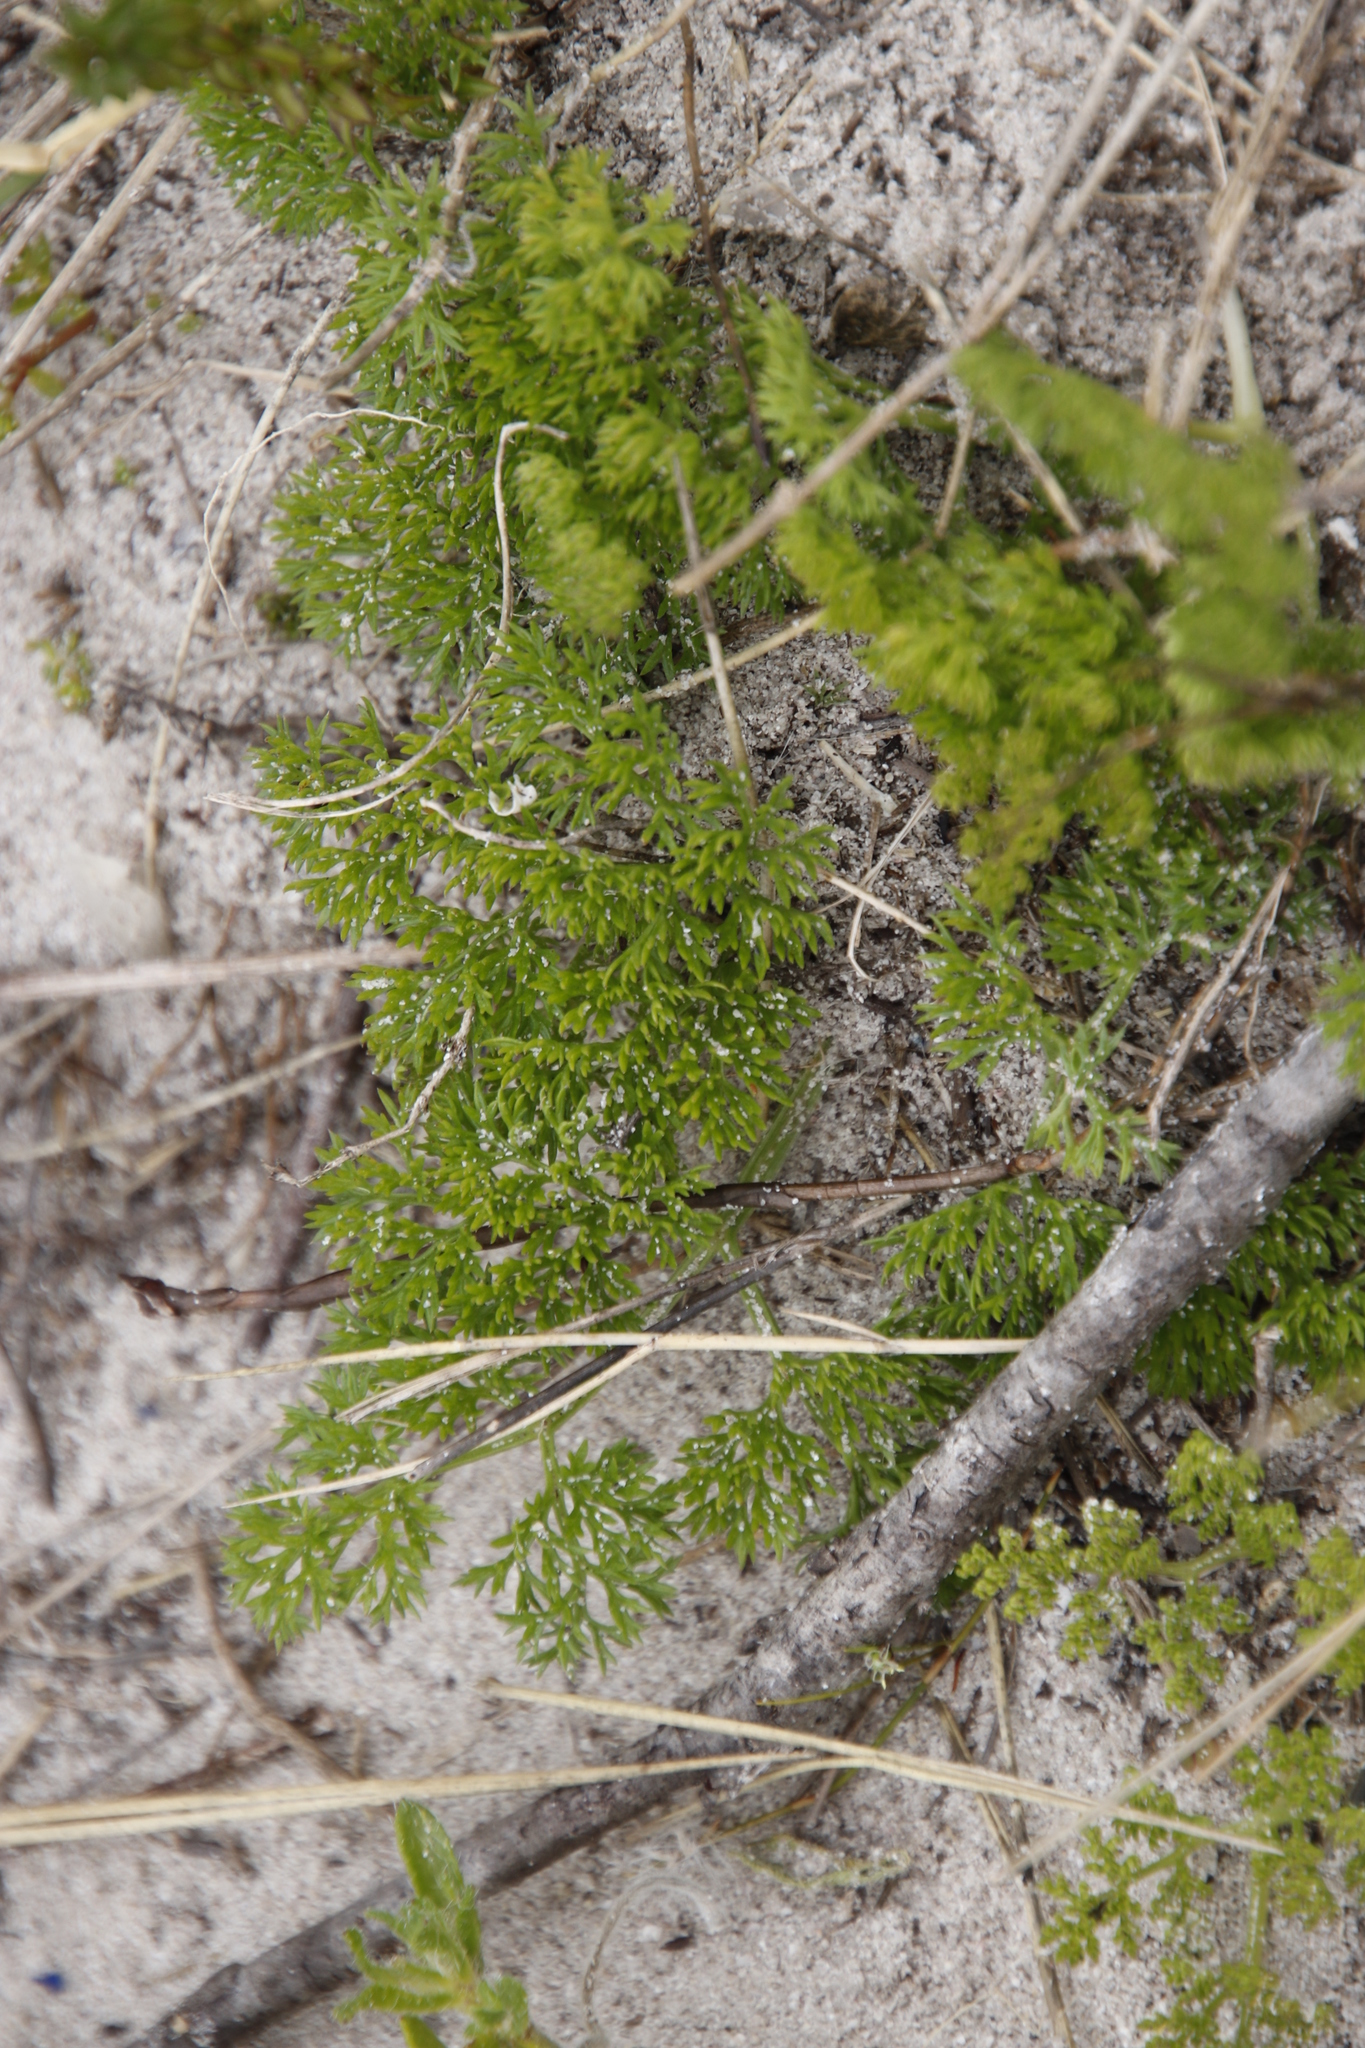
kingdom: Plantae
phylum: Tracheophyta
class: Magnoliopsida
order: Apiales
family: Apiaceae
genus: Annesorhiza
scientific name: Annesorhiza macrocarpa
